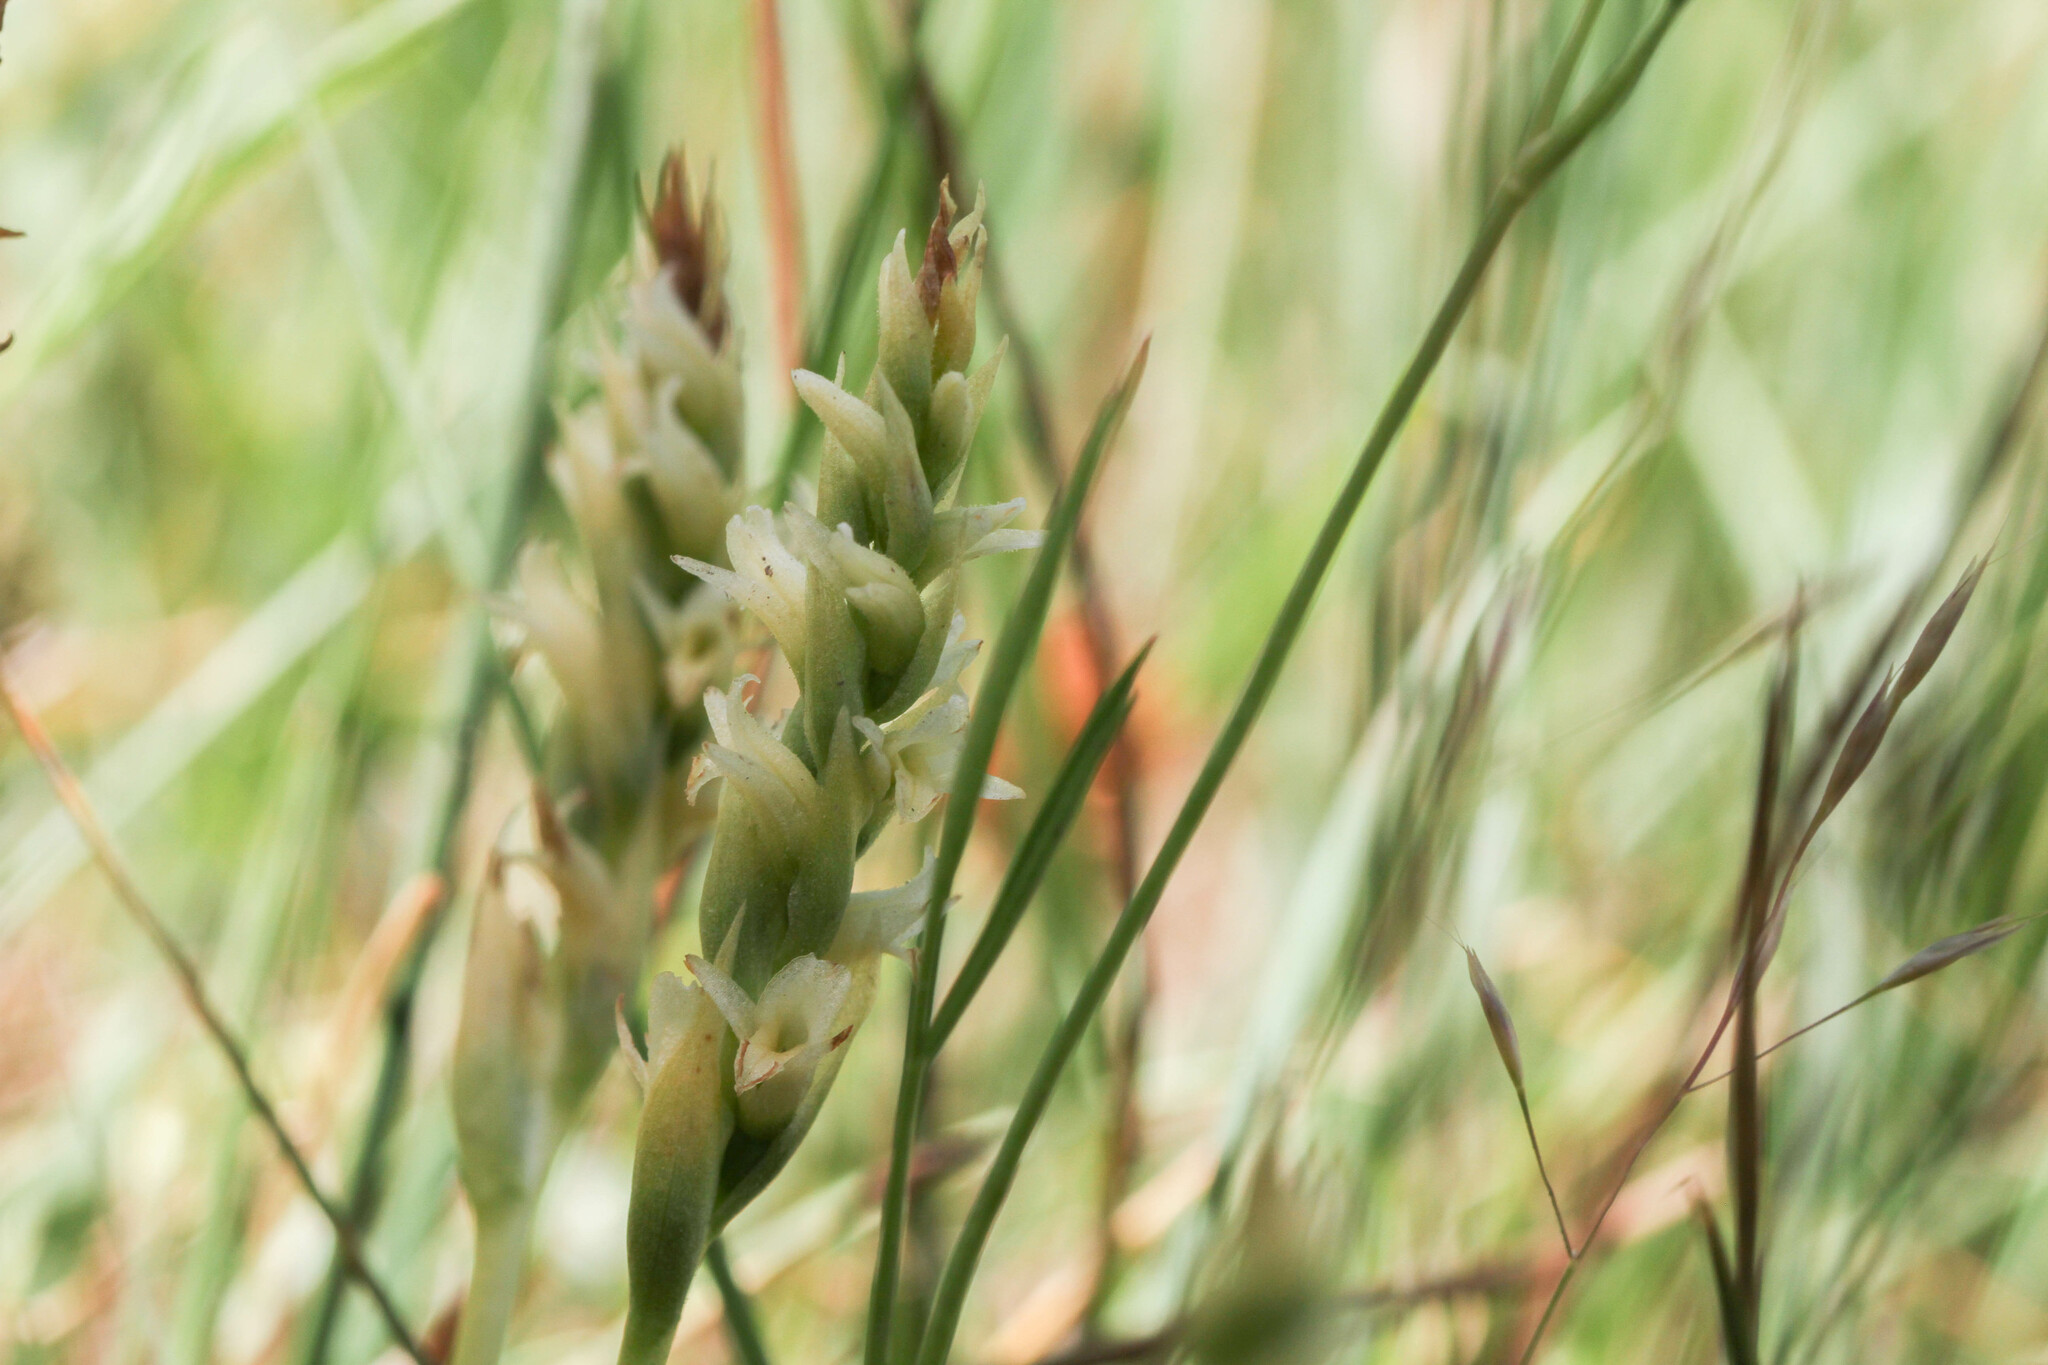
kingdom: Plantae
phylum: Tracheophyta
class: Liliopsida
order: Asparagales
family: Orchidaceae
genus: Spiranthes
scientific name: Spiranthes stellata
